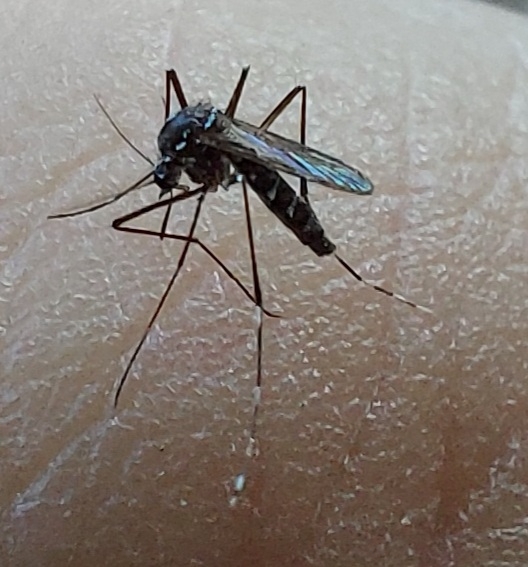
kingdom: Animalia
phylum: Arthropoda
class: Insecta
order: Diptera
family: Culicidae
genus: Aedes
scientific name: Aedes albopictus
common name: Tiger mosquito
